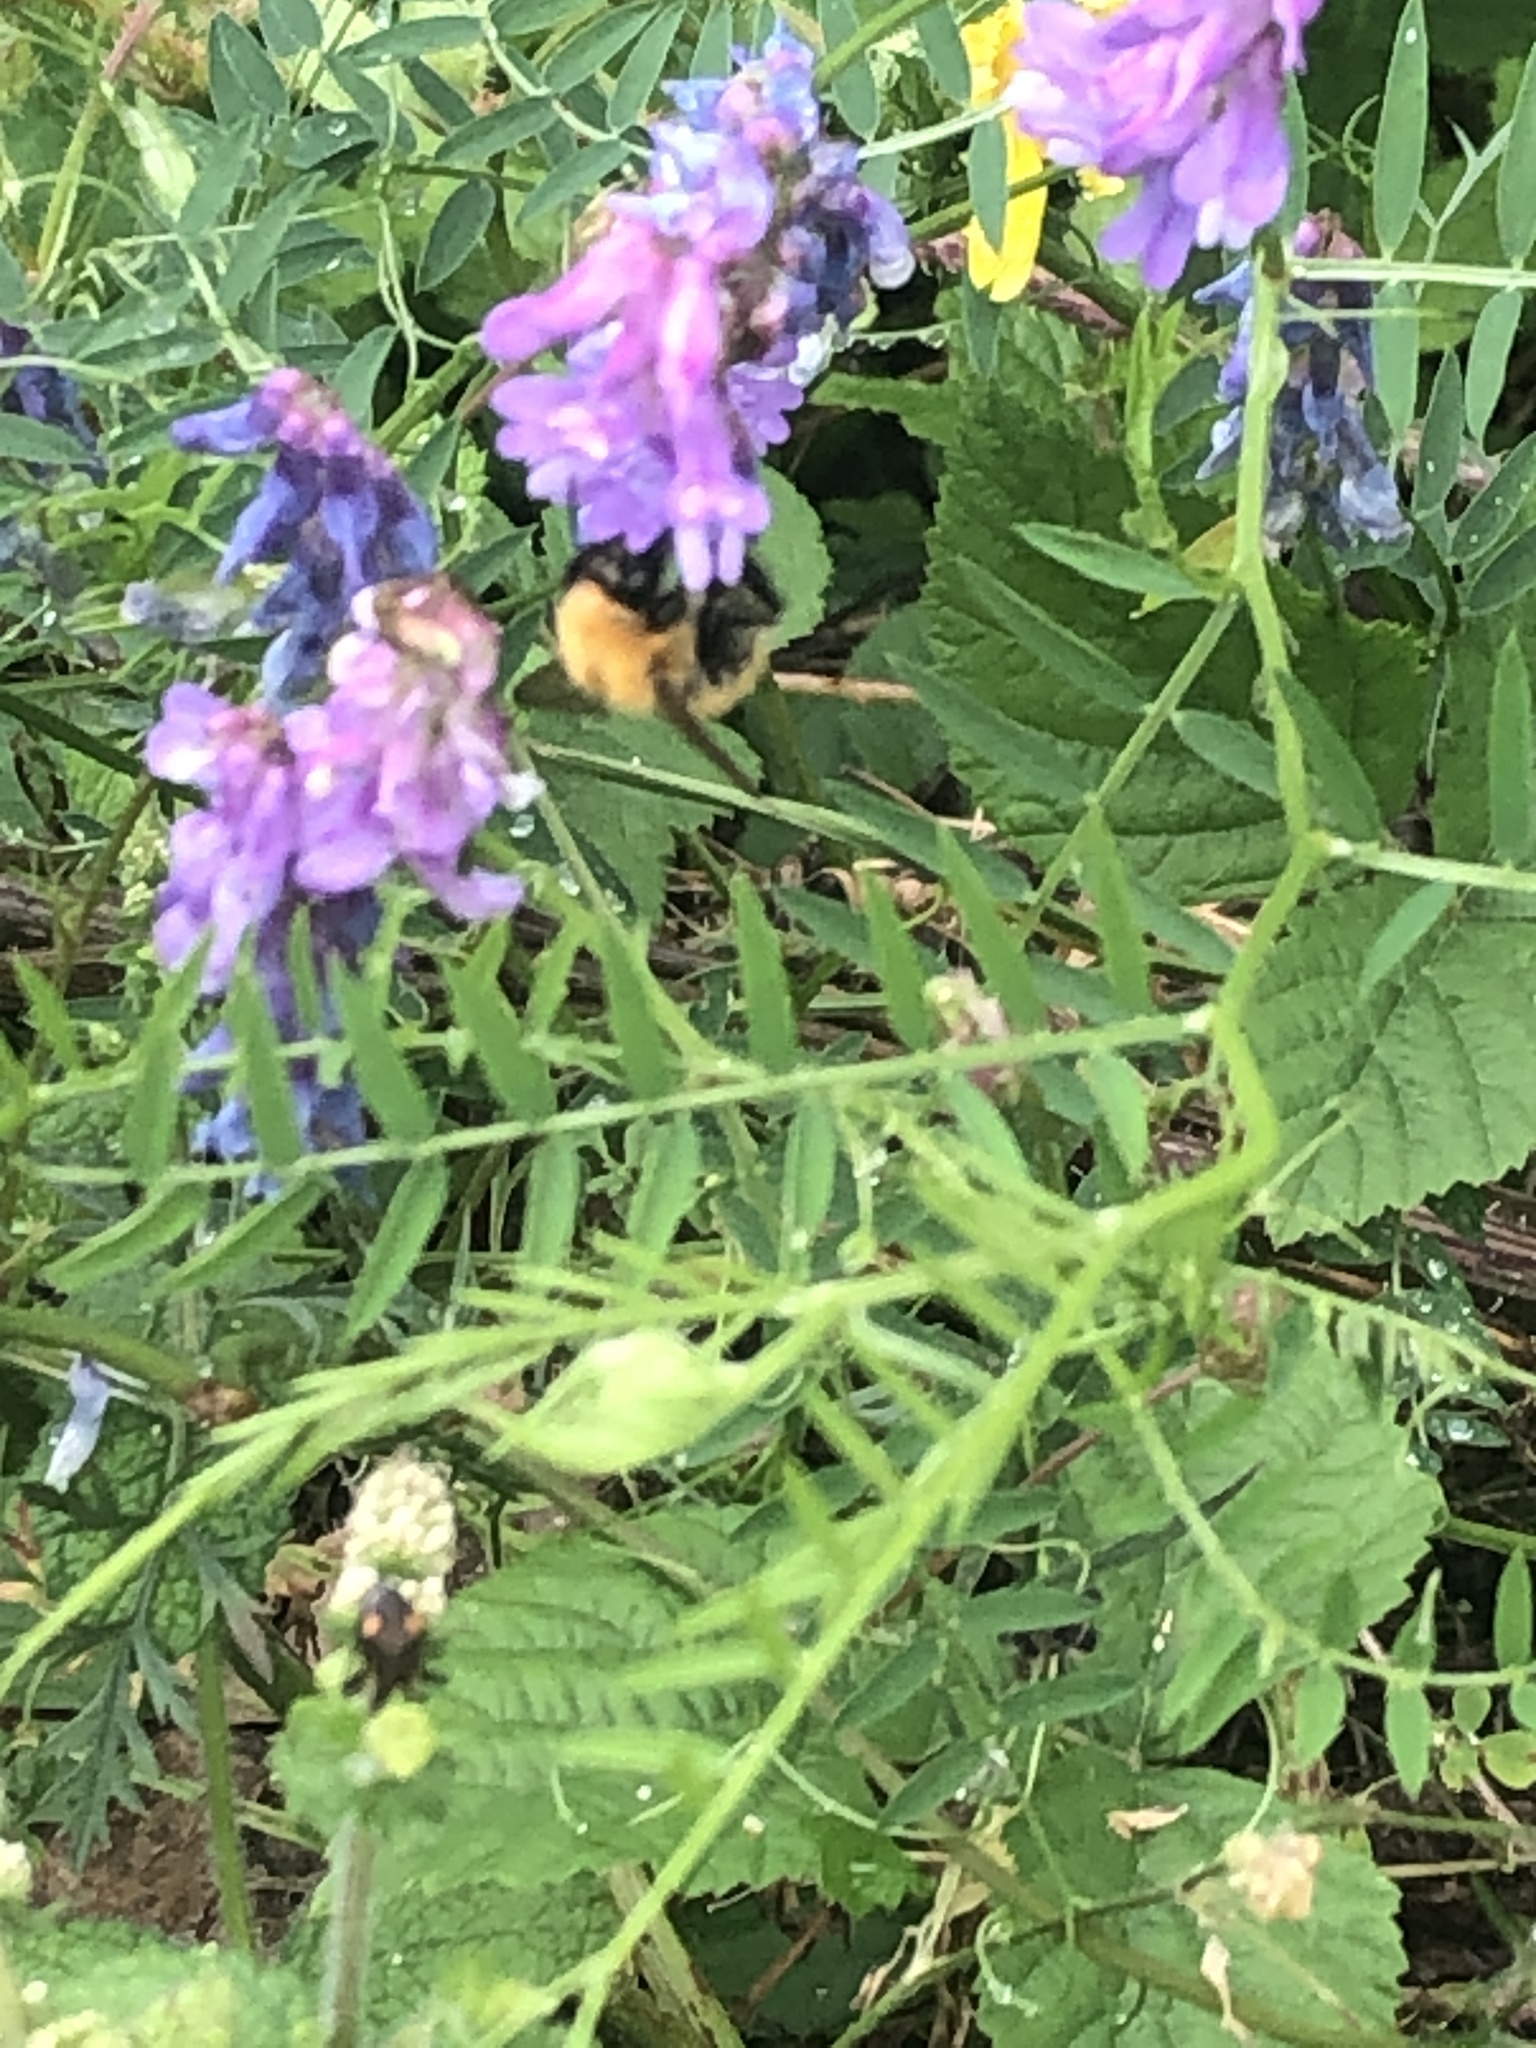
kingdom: Animalia
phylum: Arthropoda
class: Insecta
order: Hymenoptera
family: Apidae
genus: Bombus
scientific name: Bombus pascuorum
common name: Common carder bee
